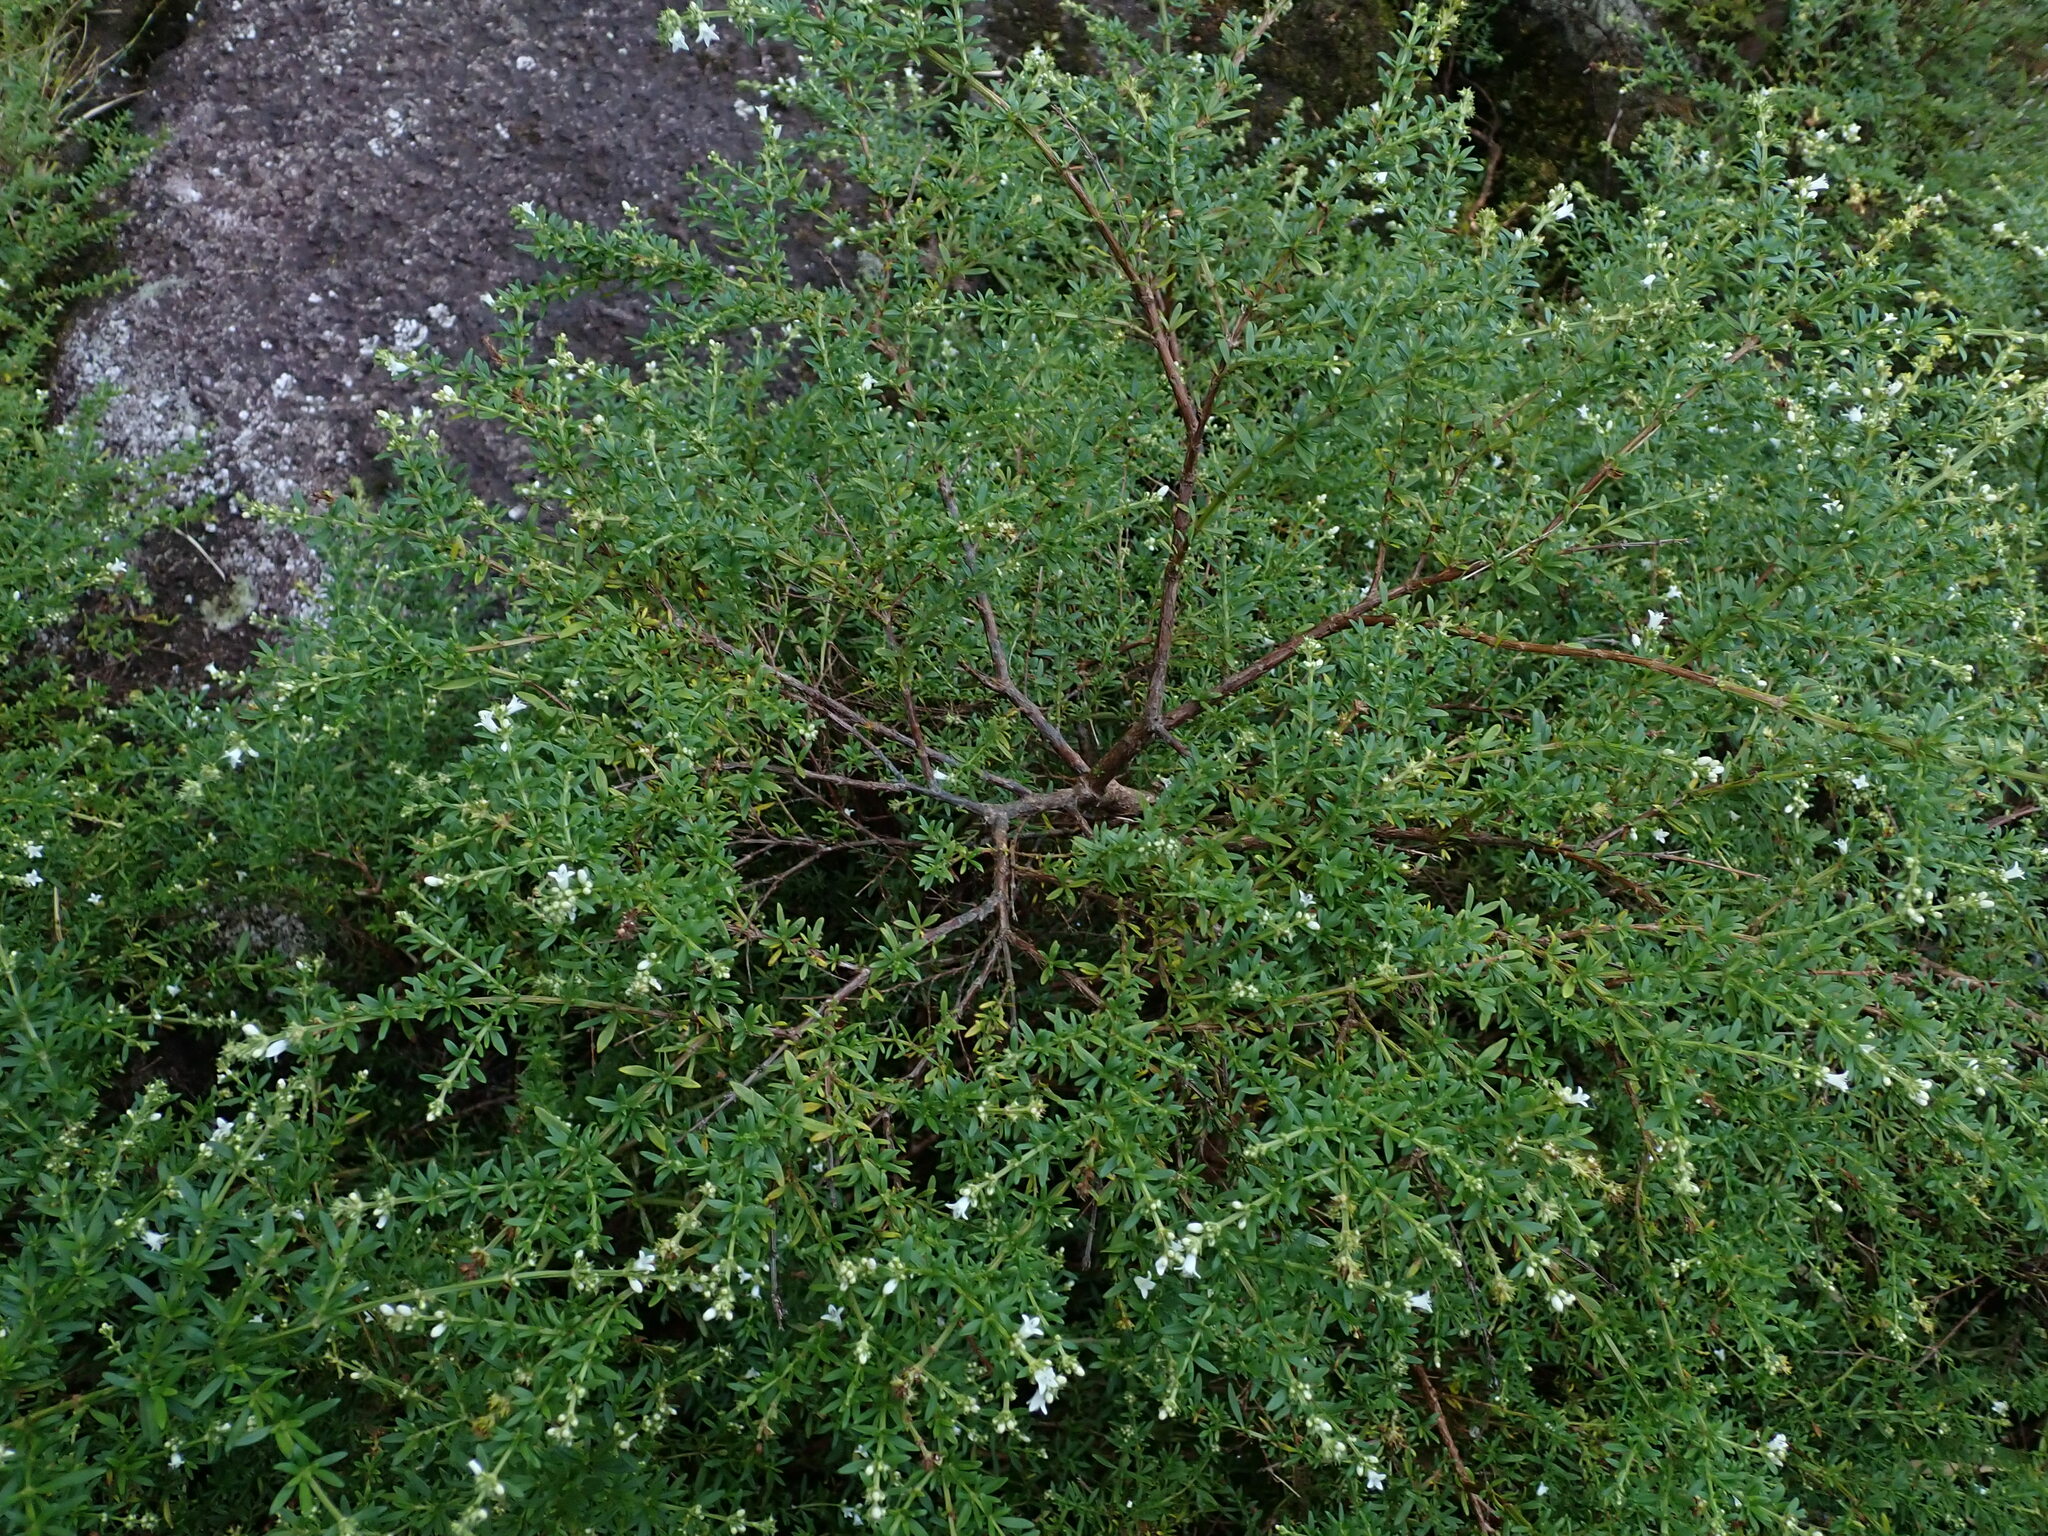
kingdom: Plantae
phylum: Tracheophyta
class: Magnoliopsida
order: Gentianales
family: Rubiaceae
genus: Galianthe
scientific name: Galianthe brasiliensis
